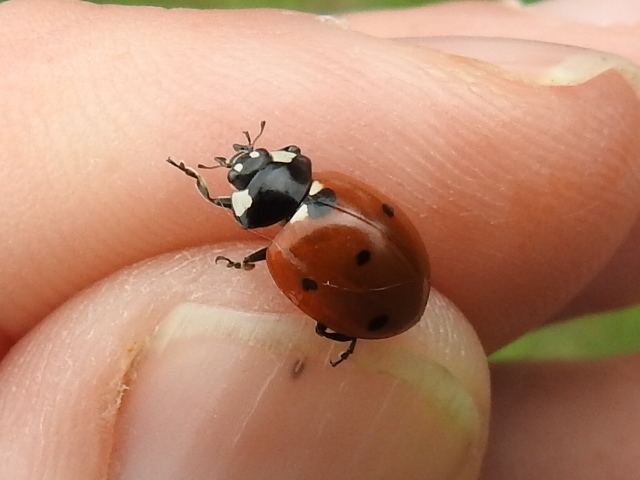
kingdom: Animalia
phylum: Arthropoda
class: Insecta
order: Coleoptera
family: Coccinellidae
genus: Coccinella
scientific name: Coccinella septempunctata
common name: Sevenspotted lady beetle
